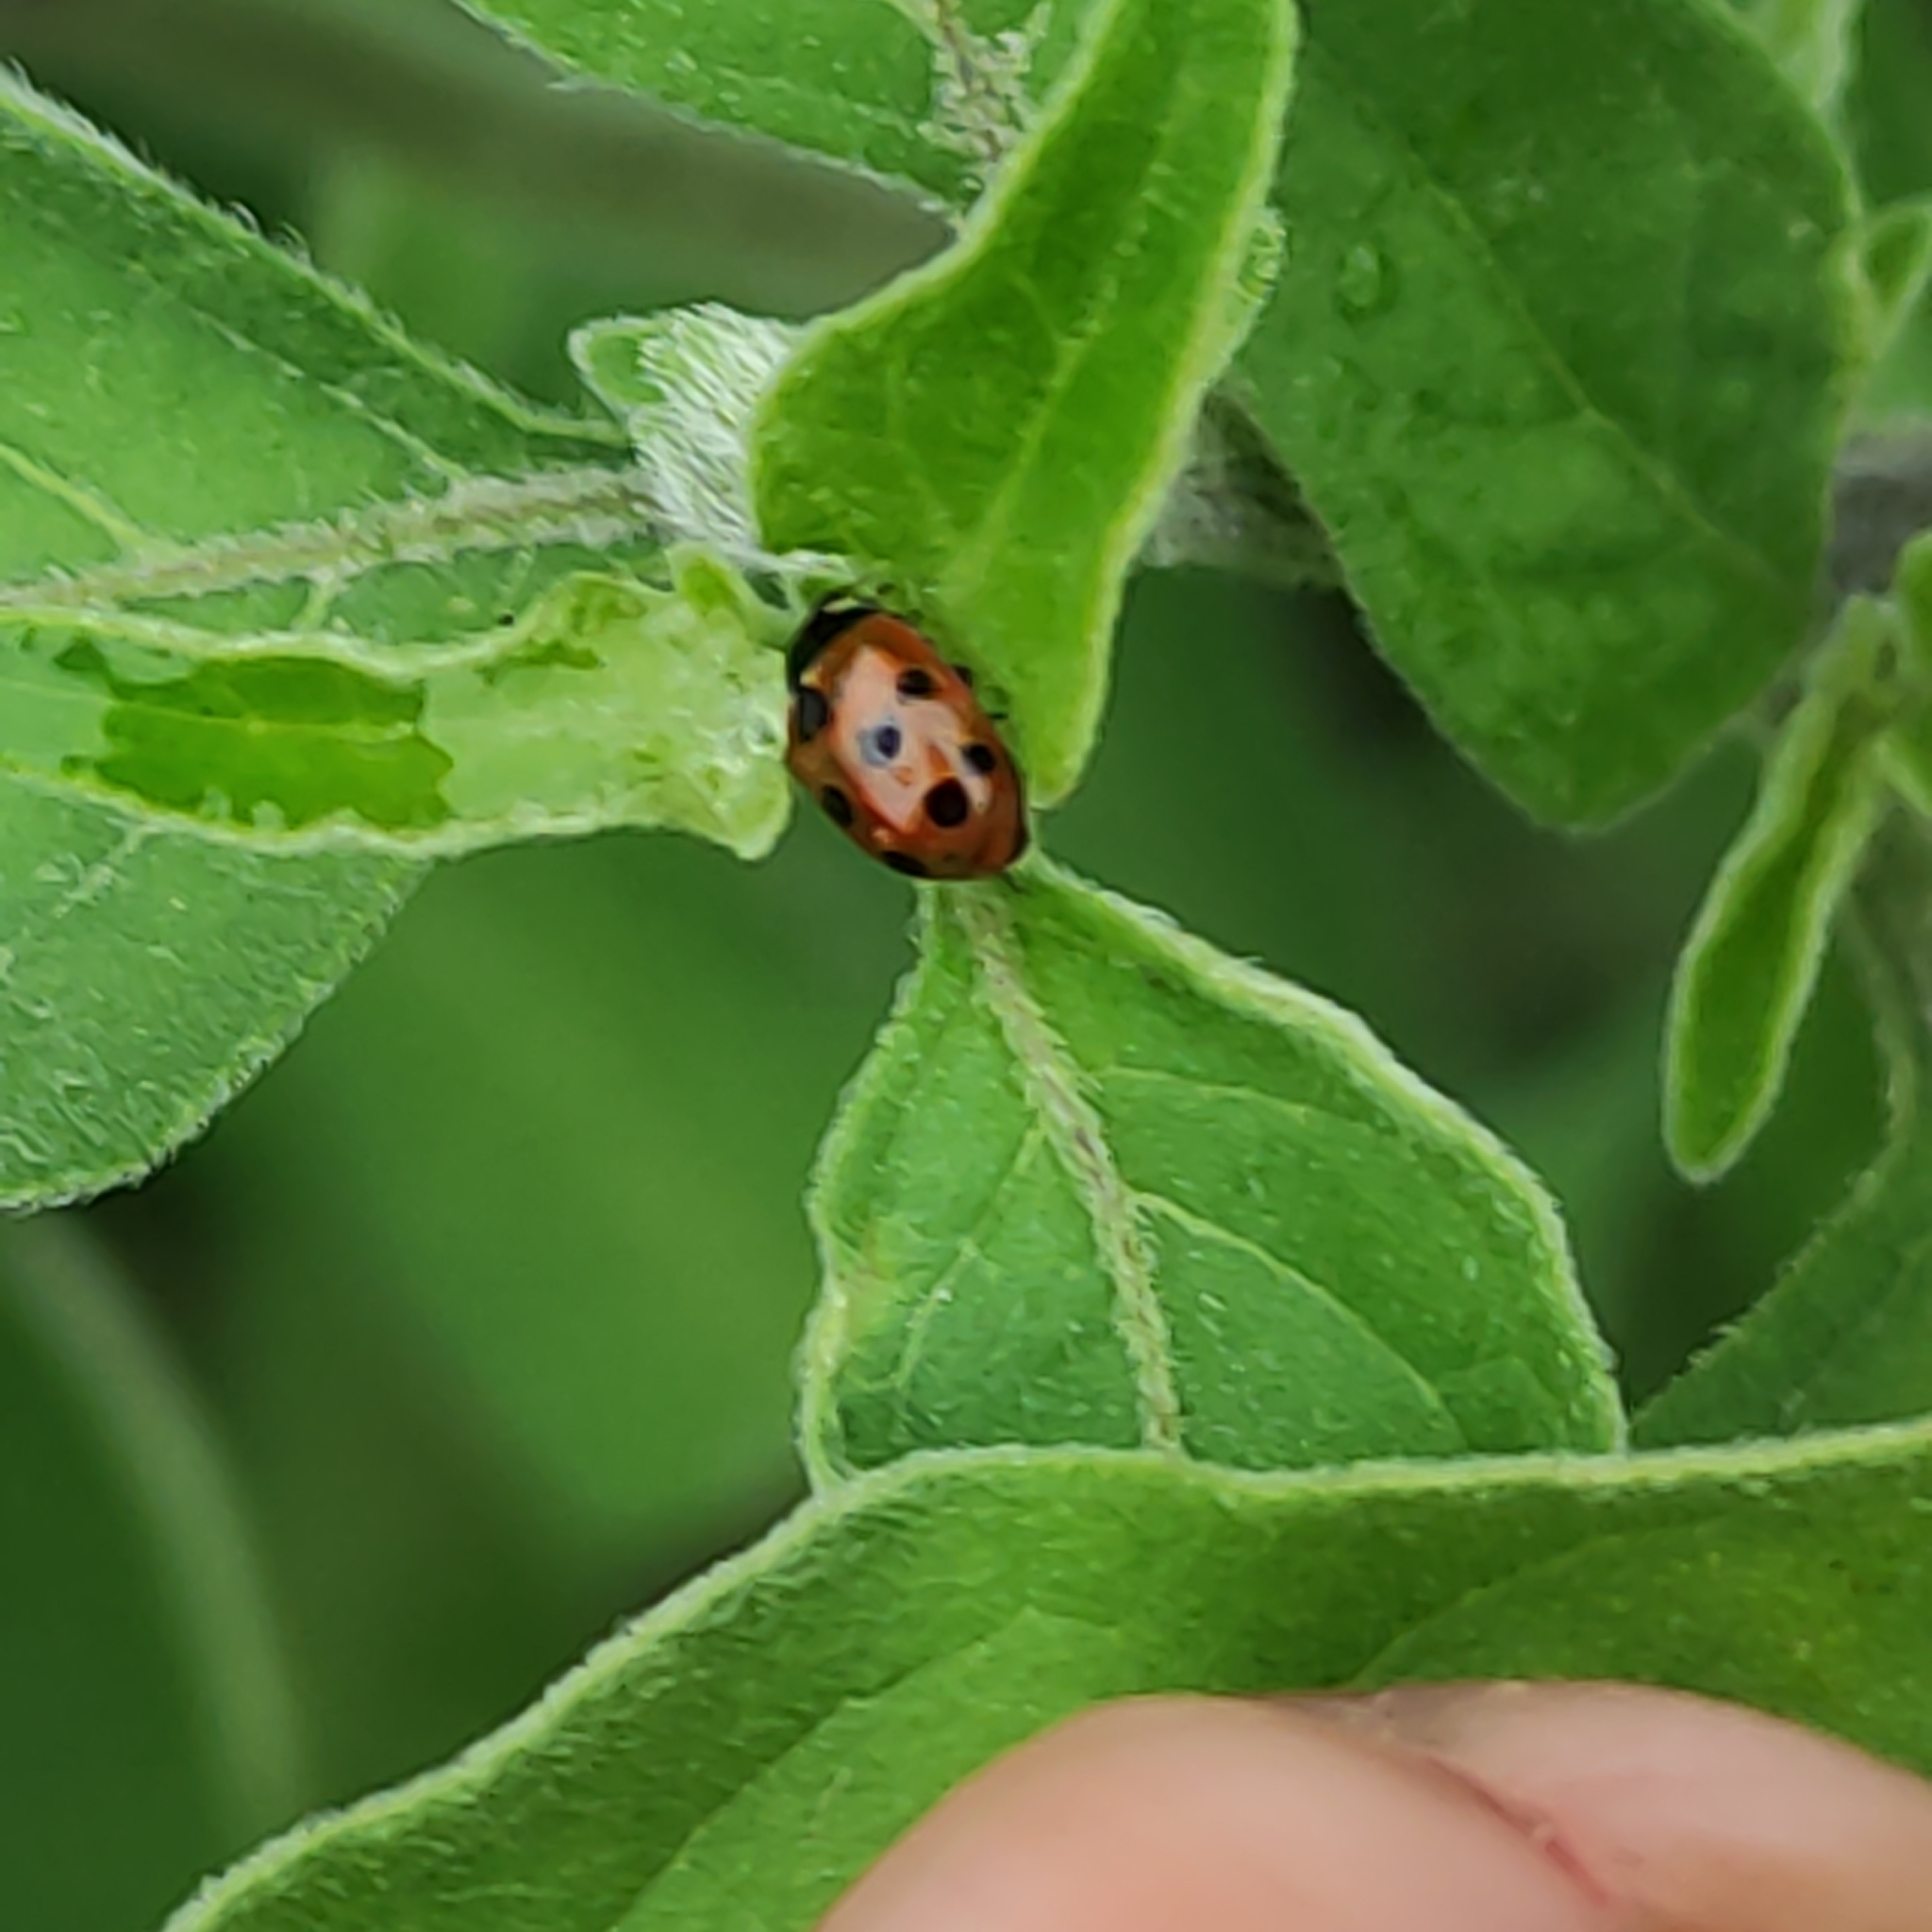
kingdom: Animalia
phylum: Arthropoda
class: Insecta
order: Coleoptera
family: Coccinellidae
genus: Coccinella
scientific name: Coccinella undecimpunctata
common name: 11-spot ladybird
